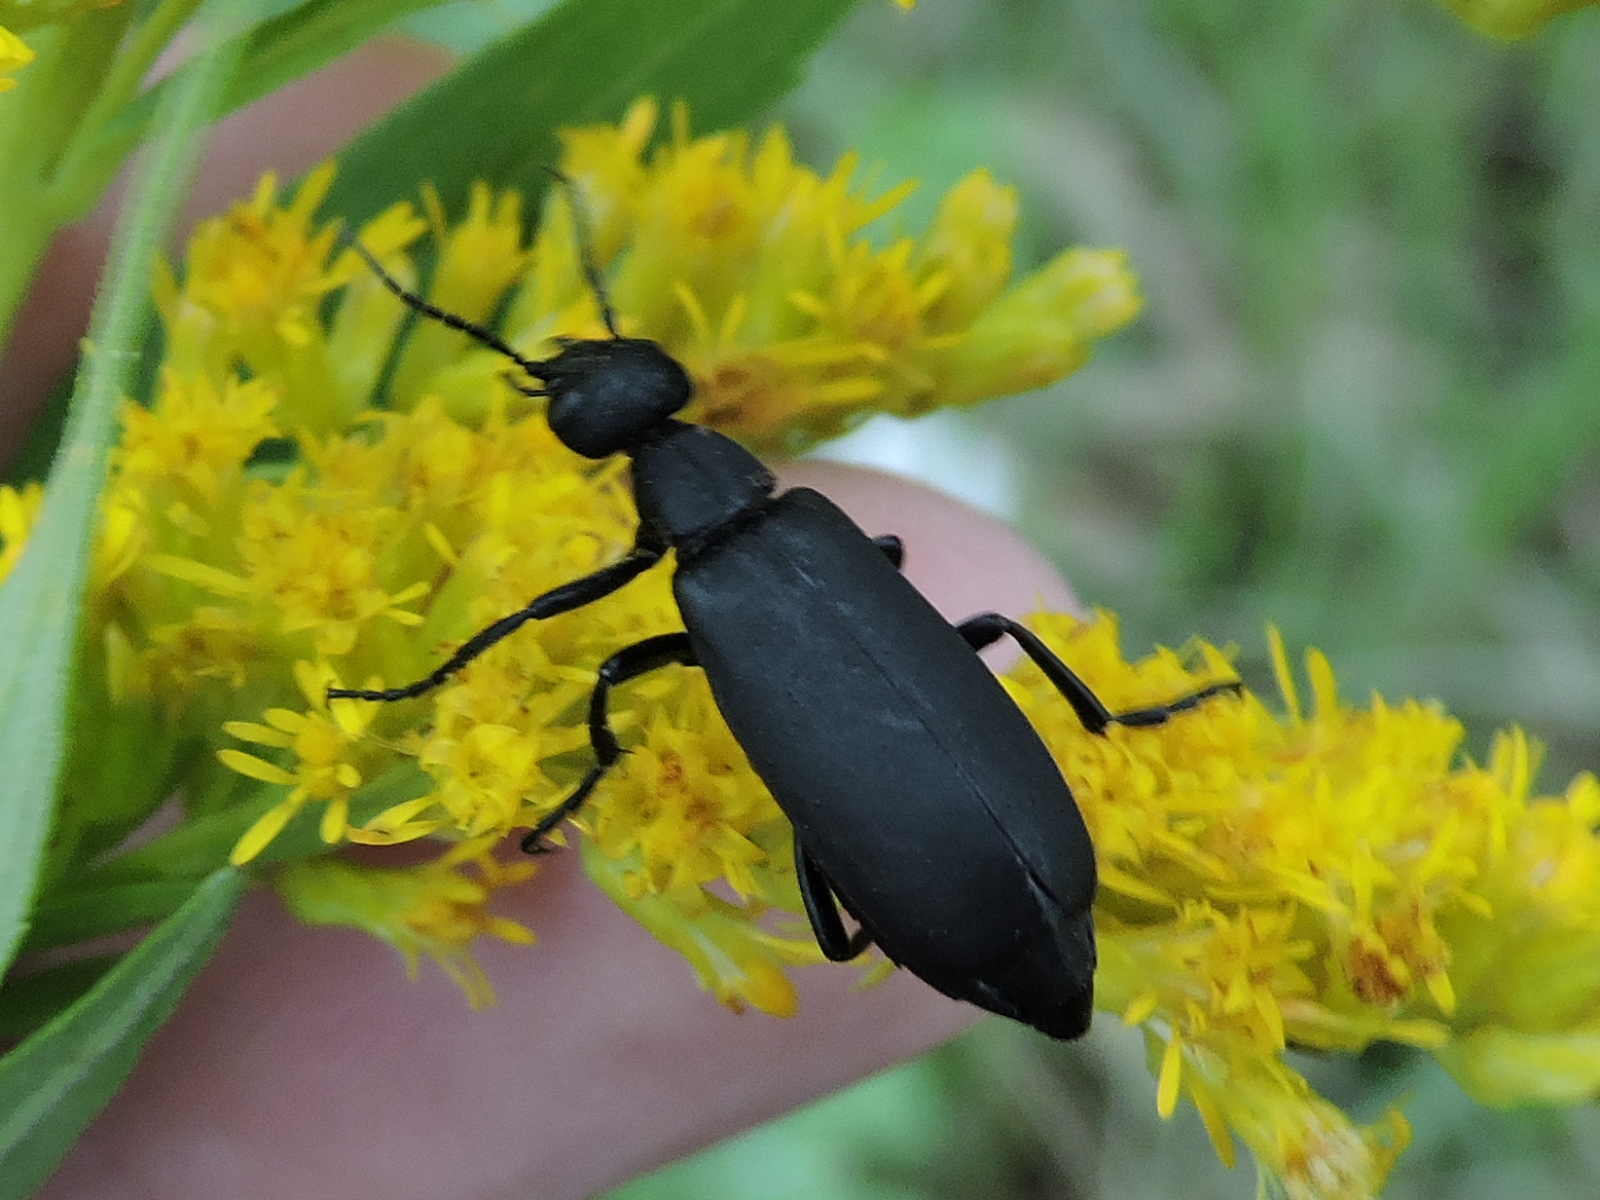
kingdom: Animalia
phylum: Arthropoda
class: Insecta
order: Coleoptera
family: Meloidae
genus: Epicauta
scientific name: Epicauta pensylvanica
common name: Black blister beetle
